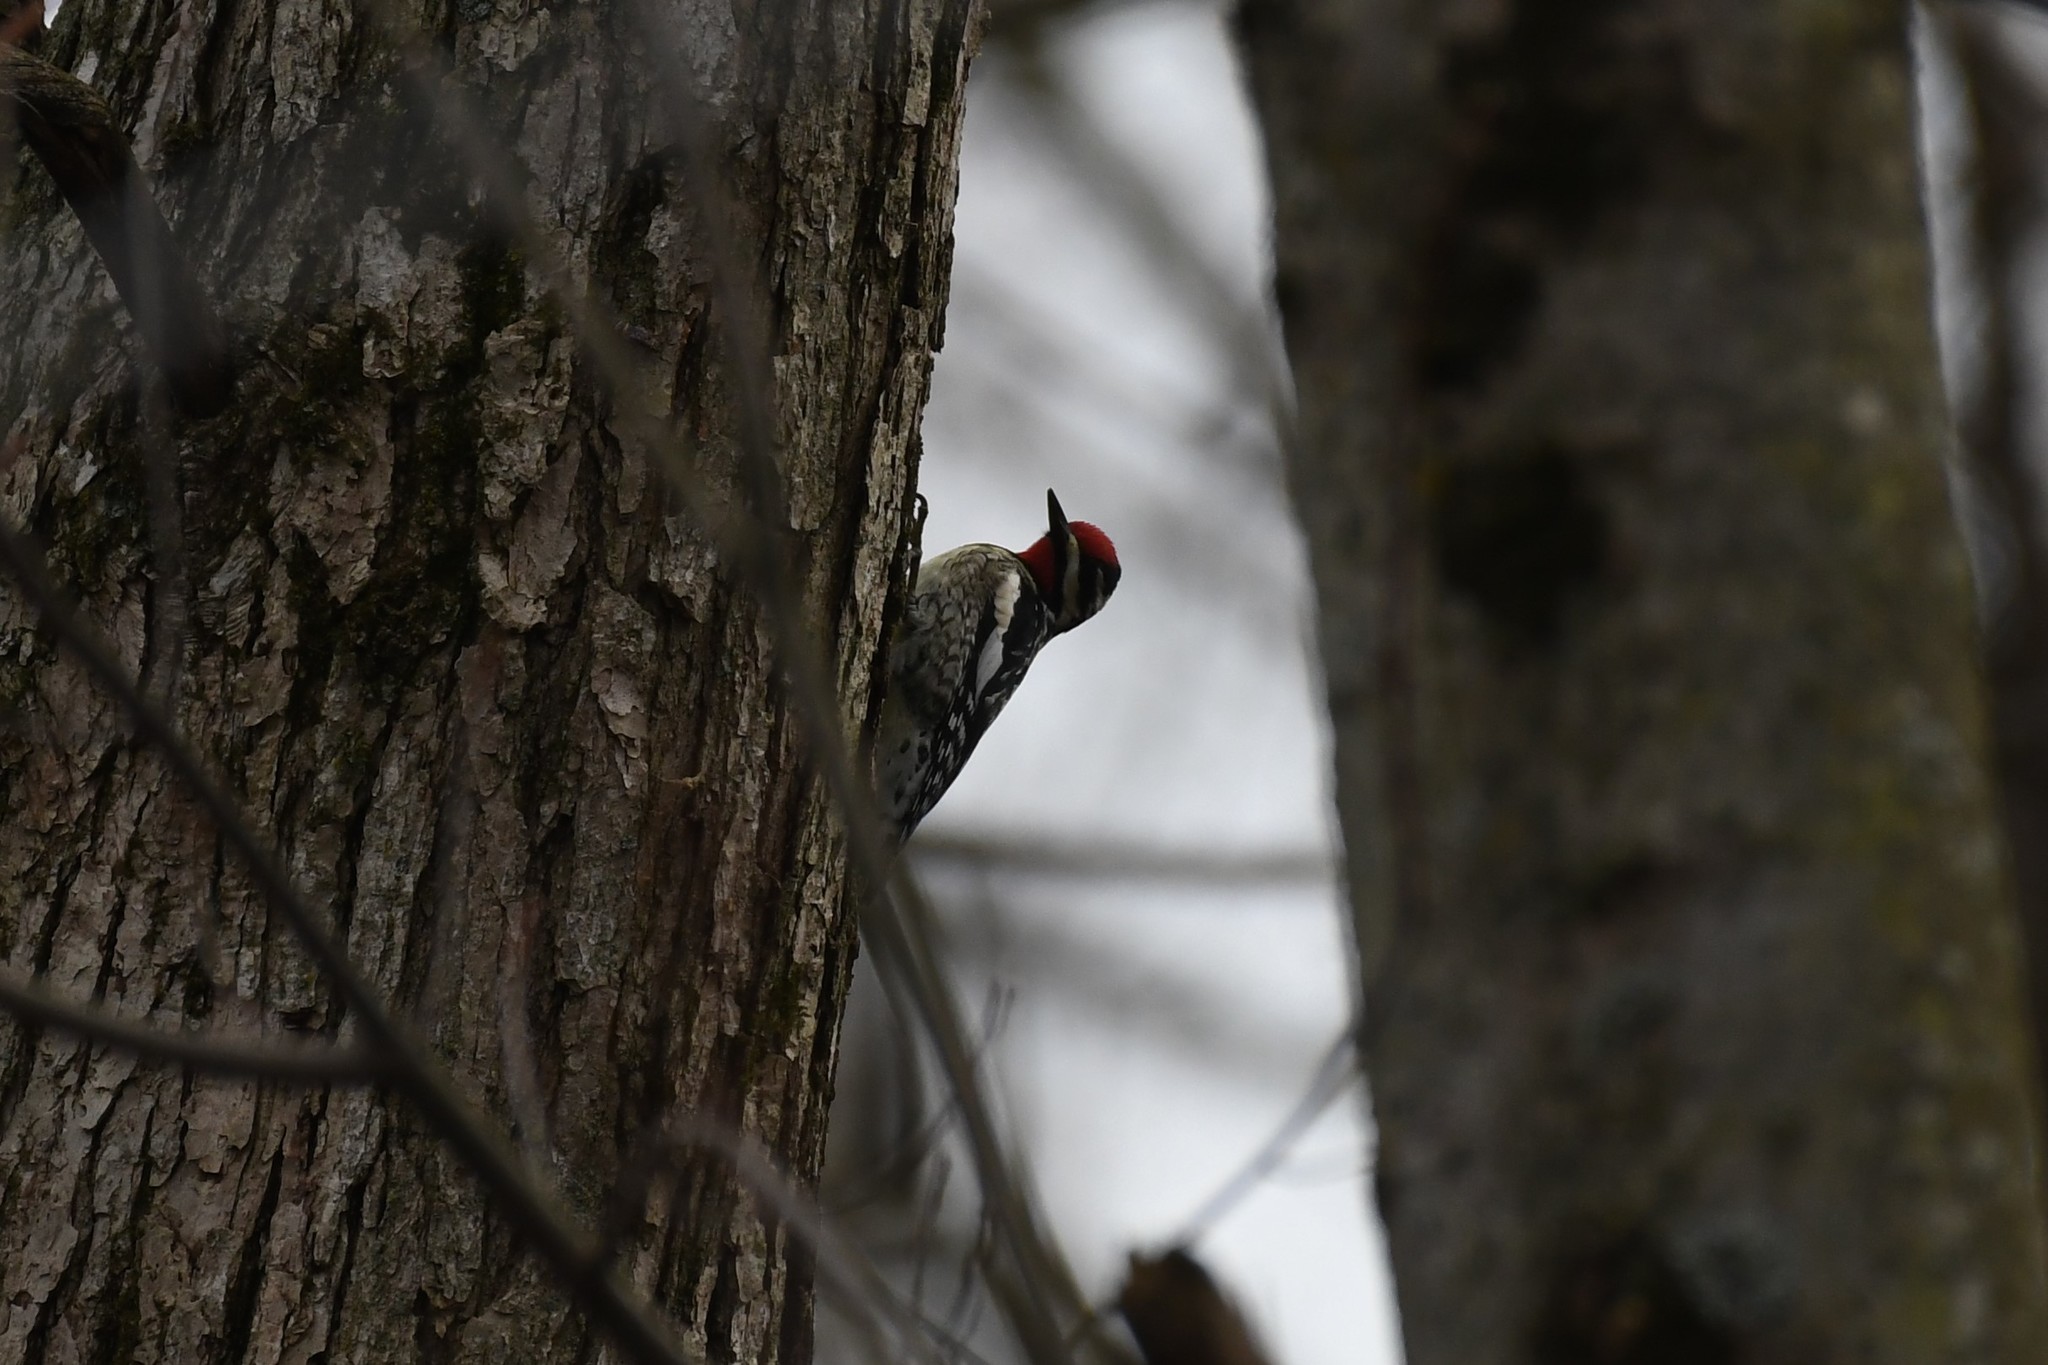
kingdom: Animalia
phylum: Chordata
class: Aves
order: Piciformes
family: Picidae
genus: Sphyrapicus
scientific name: Sphyrapicus varius
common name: Yellow-bellied sapsucker
